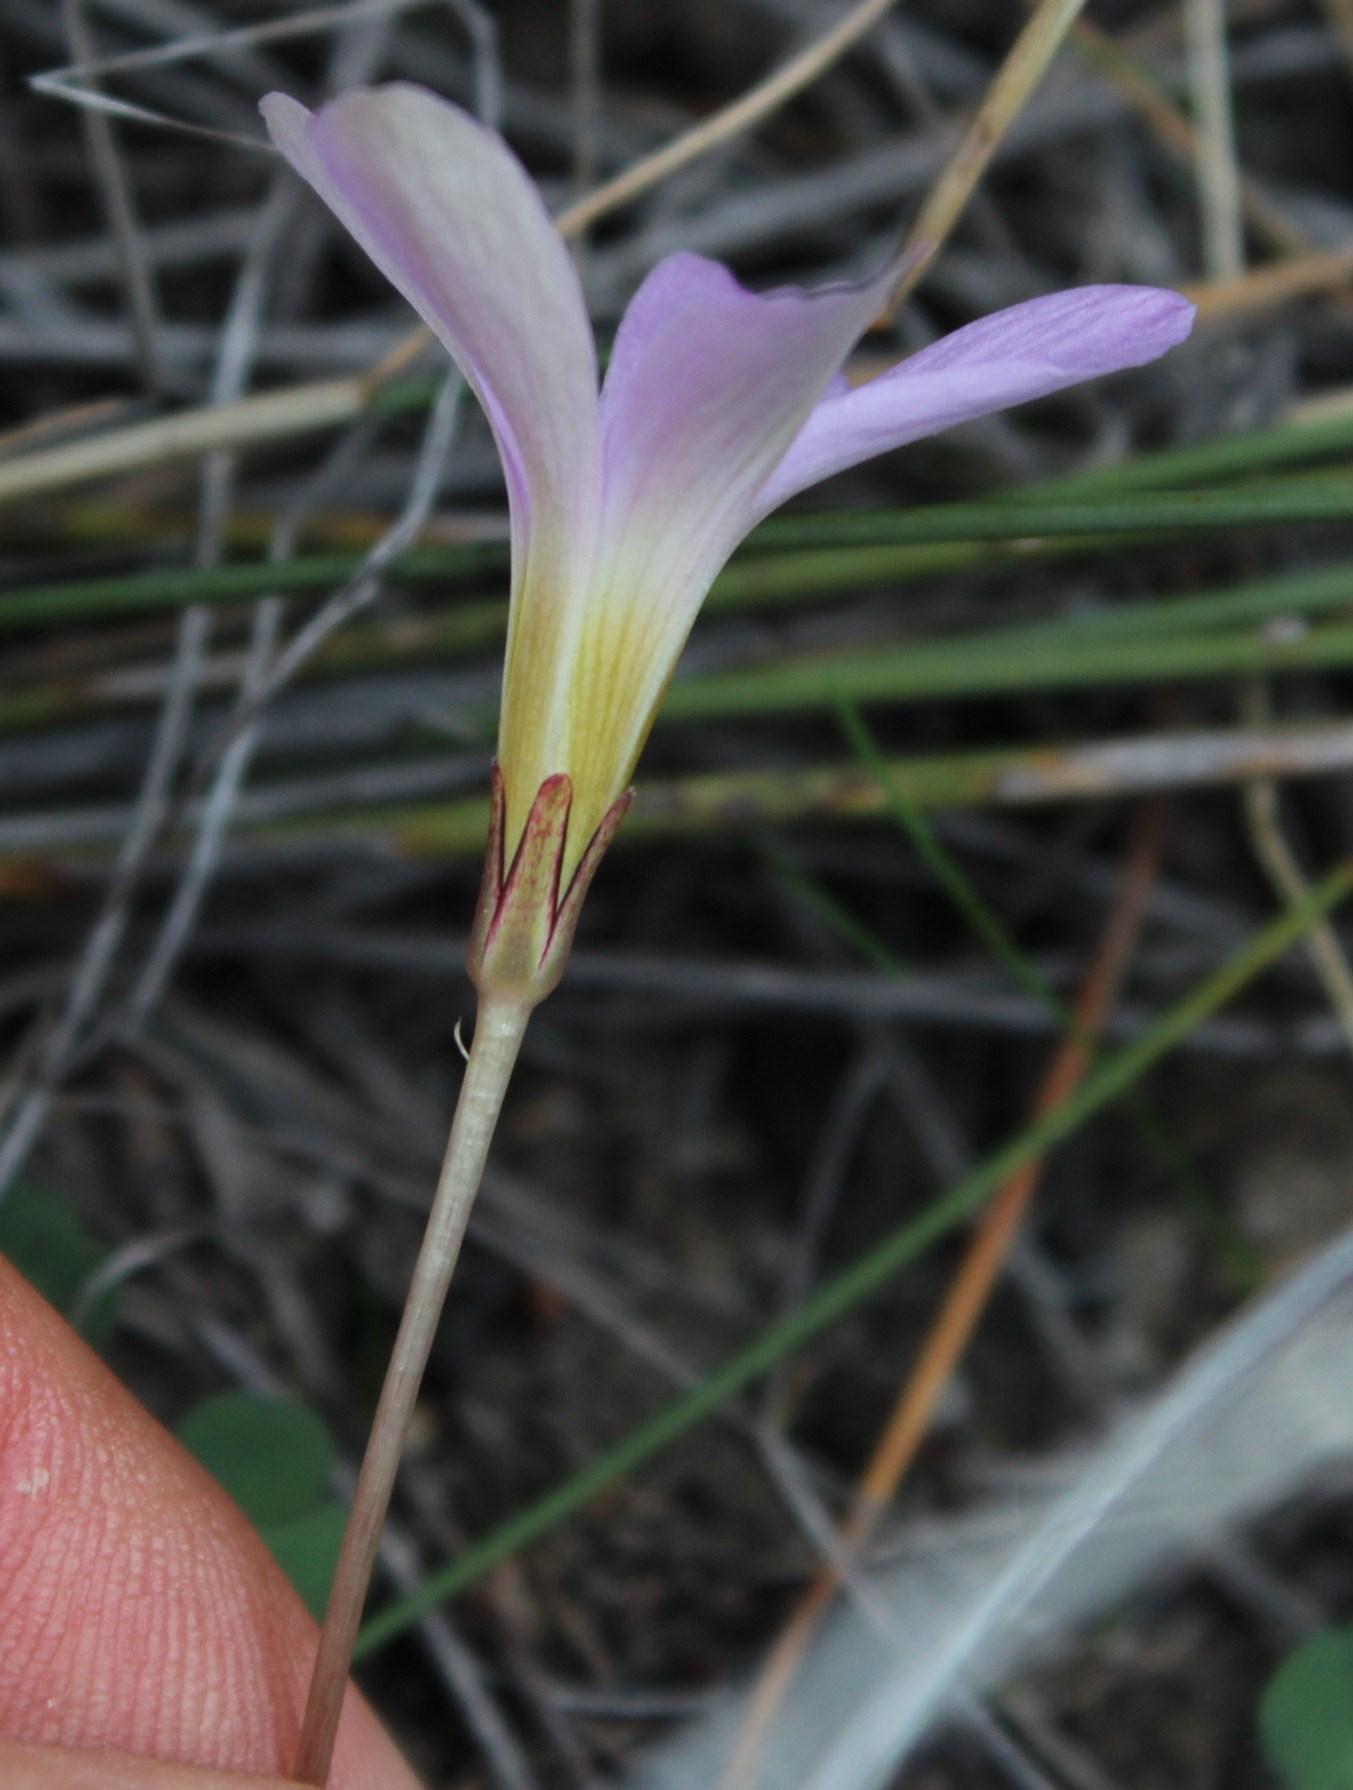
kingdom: Plantae
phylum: Tracheophyta
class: Magnoliopsida
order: Oxalidales
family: Oxalidaceae
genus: Oxalis
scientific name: Oxalis depressa
